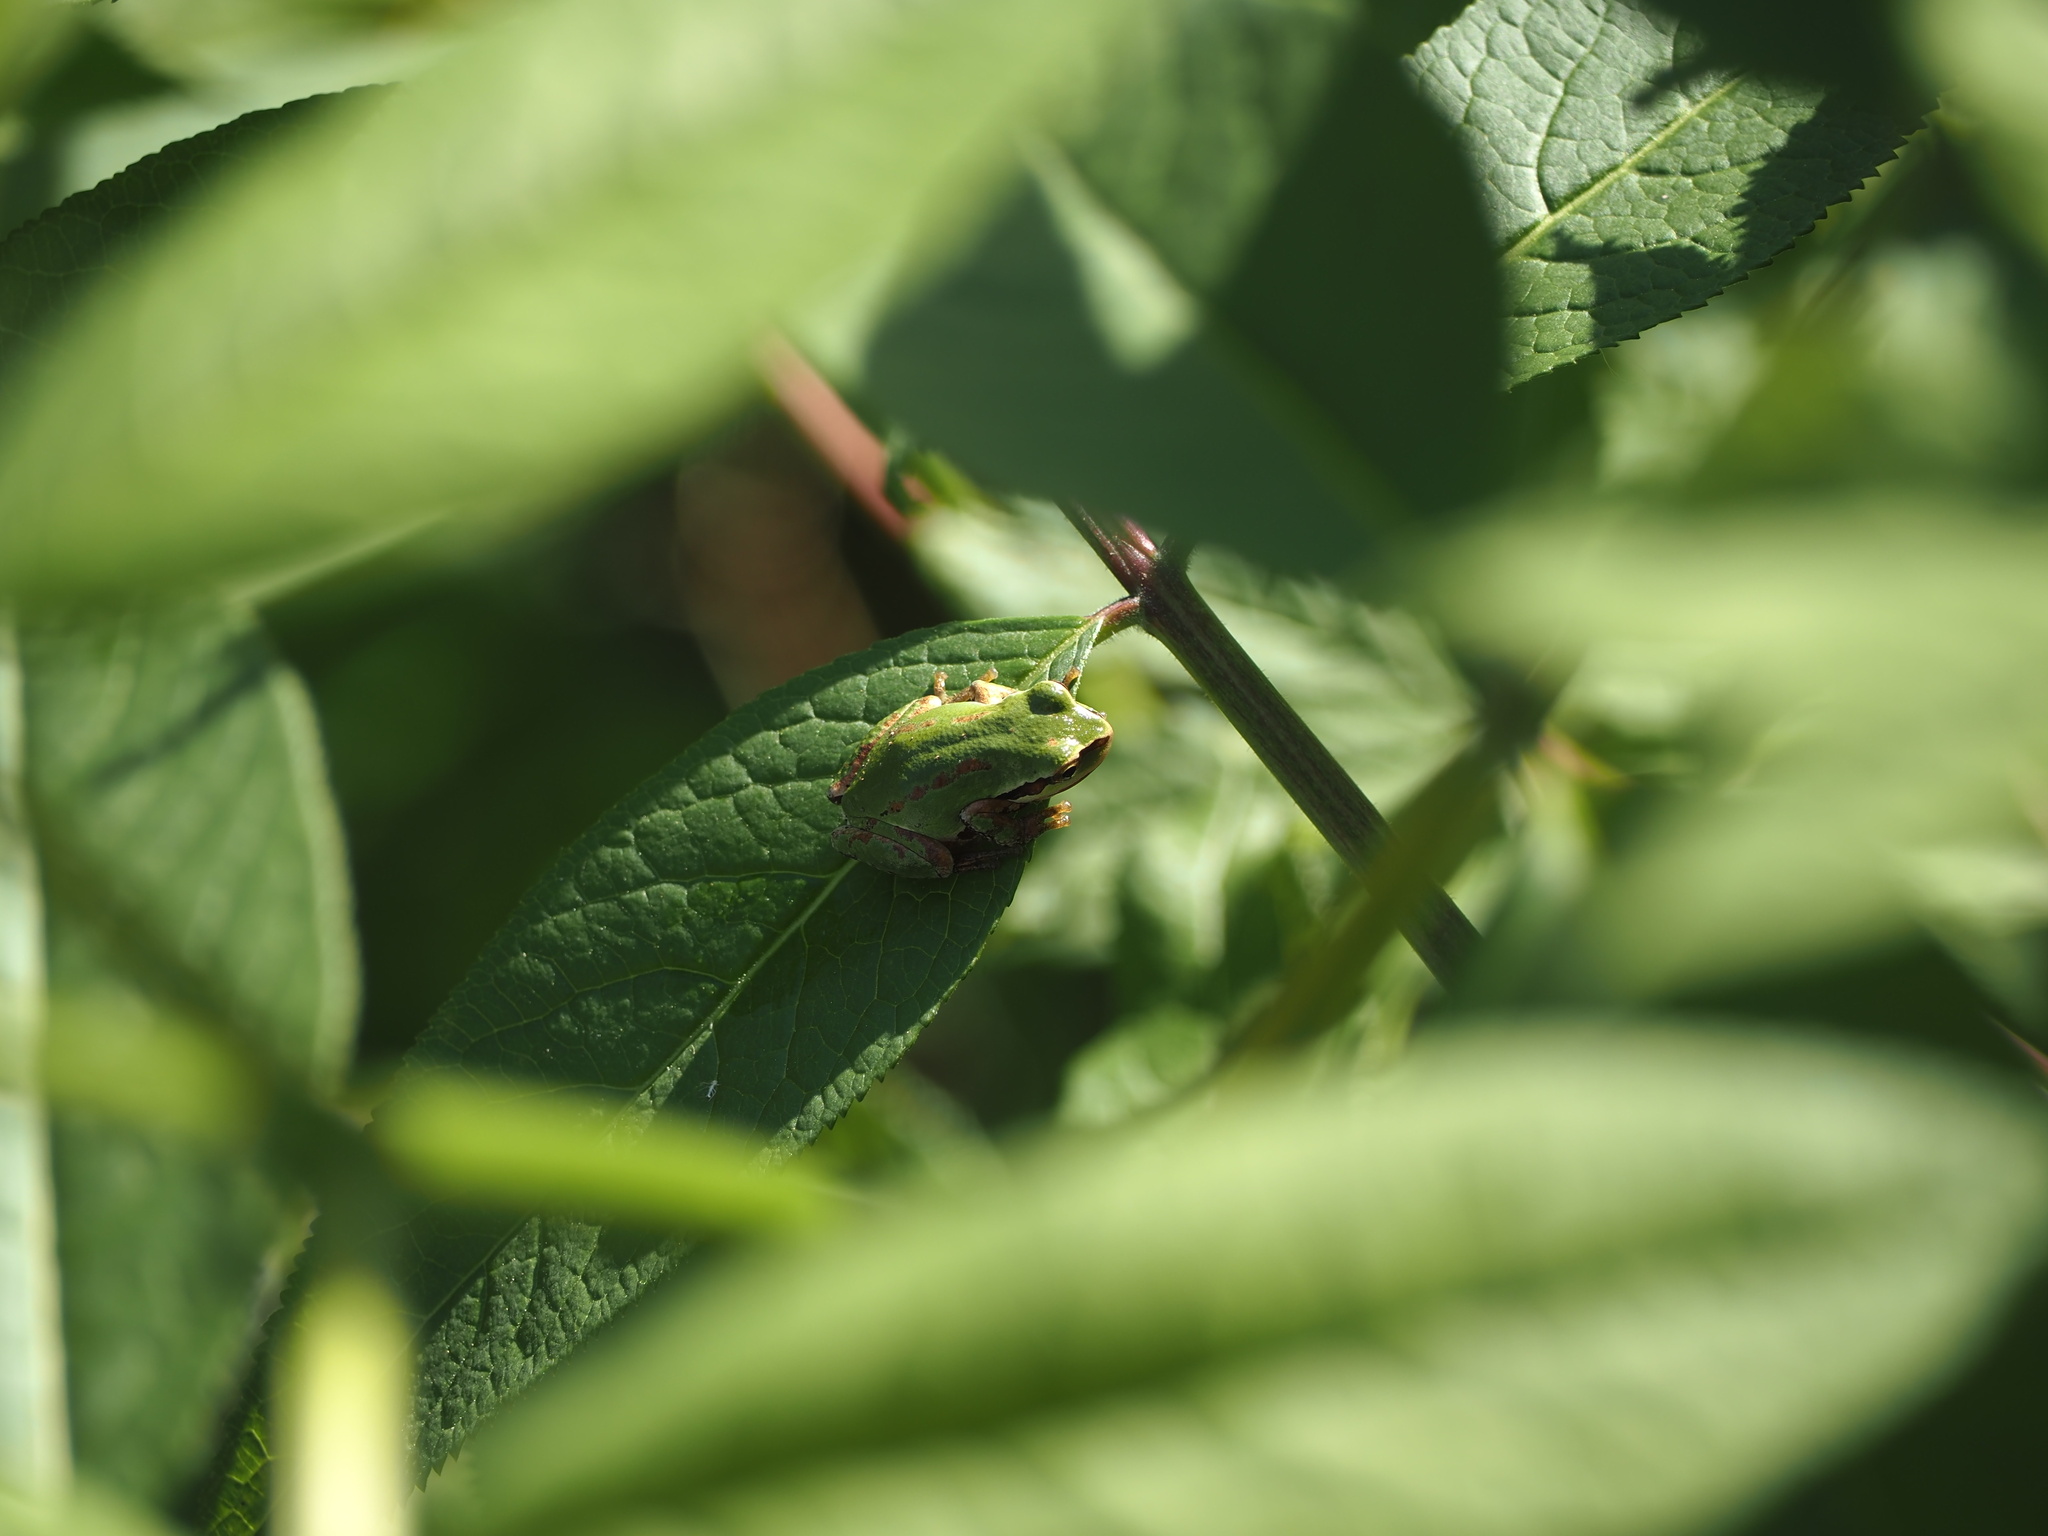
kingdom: Animalia
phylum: Chordata
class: Amphibia
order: Anura
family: Hylidae
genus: Pseudacris
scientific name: Pseudacris regilla
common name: Pacific chorus frog
